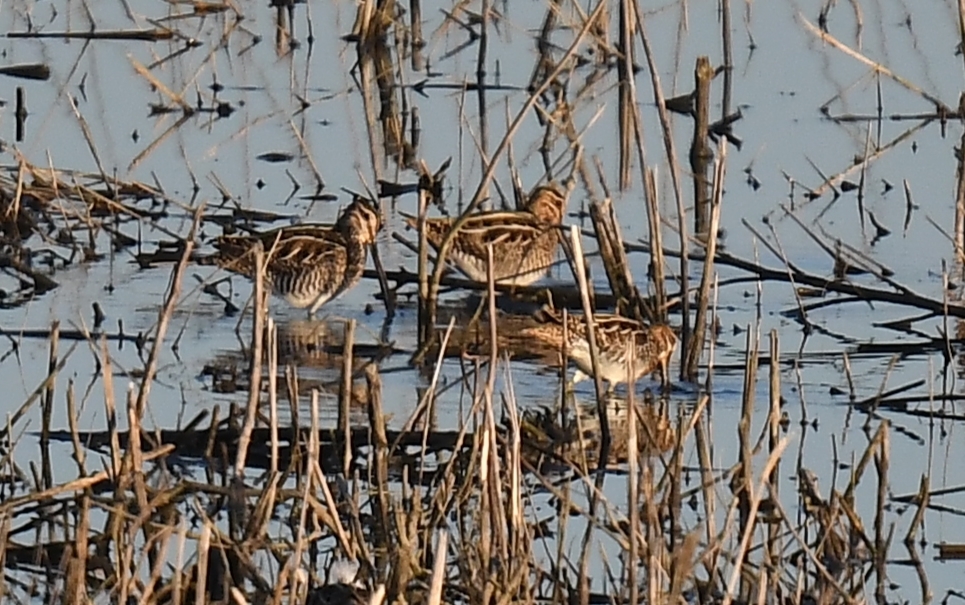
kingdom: Animalia
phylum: Chordata
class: Aves
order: Charadriiformes
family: Scolopacidae
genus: Gallinago
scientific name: Gallinago delicata
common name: Wilson's snipe
